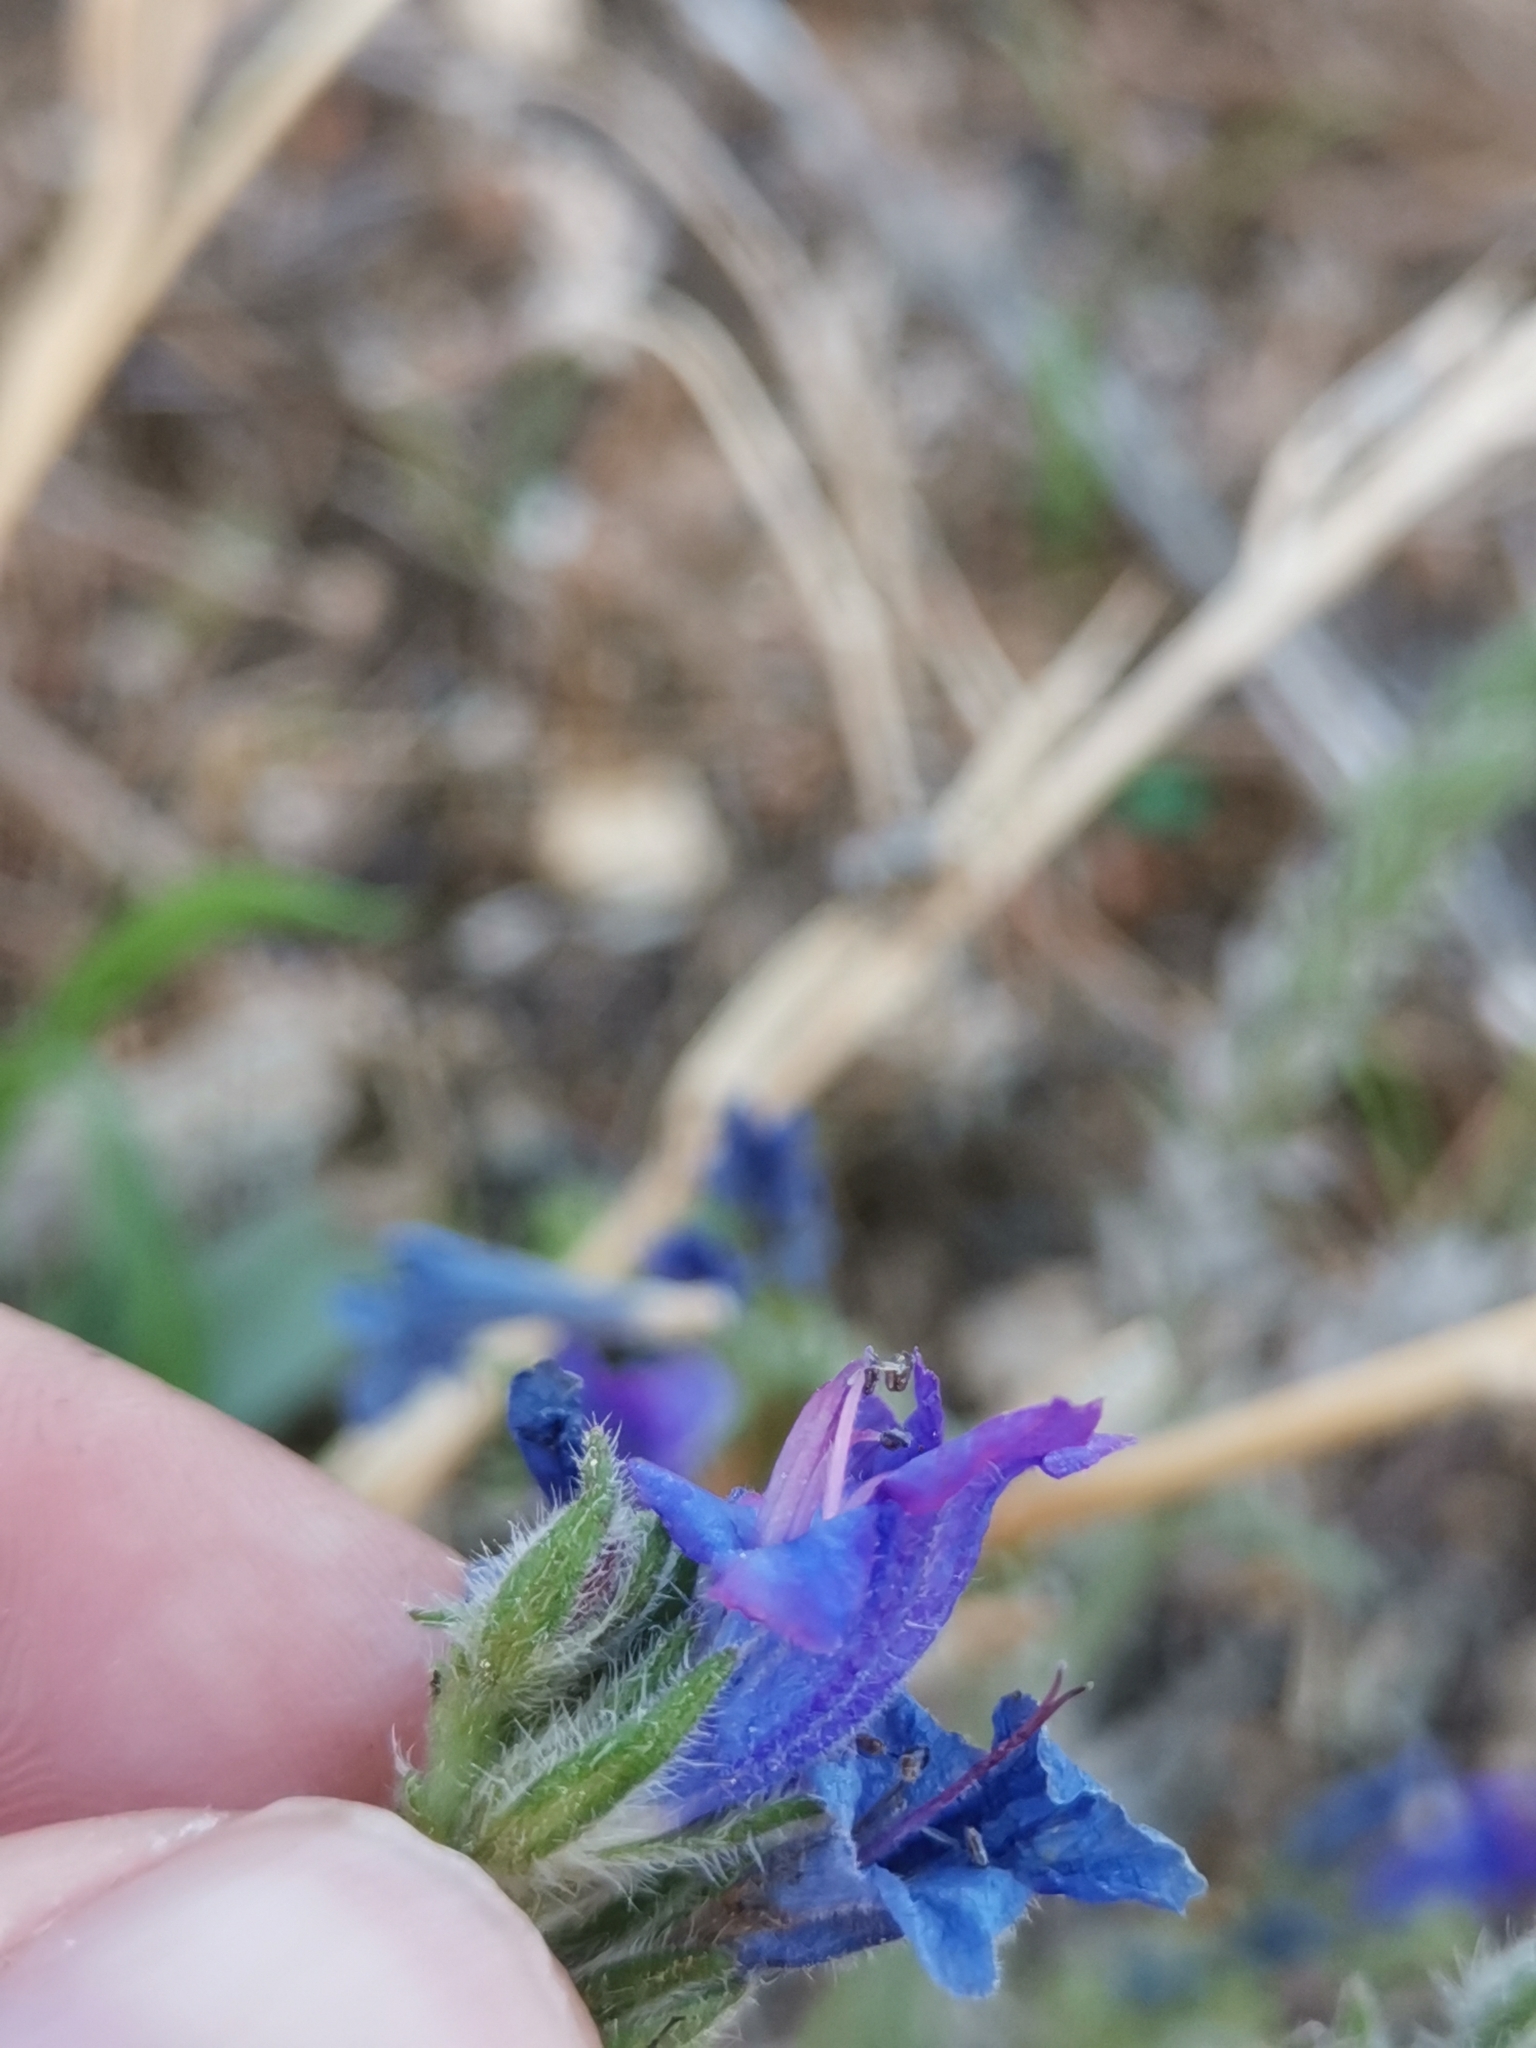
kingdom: Plantae
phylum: Tracheophyta
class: Magnoliopsida
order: Boraginales
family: Boraginaceae
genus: Echium
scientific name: Echium creticum
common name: Cretan viper's bugloss
